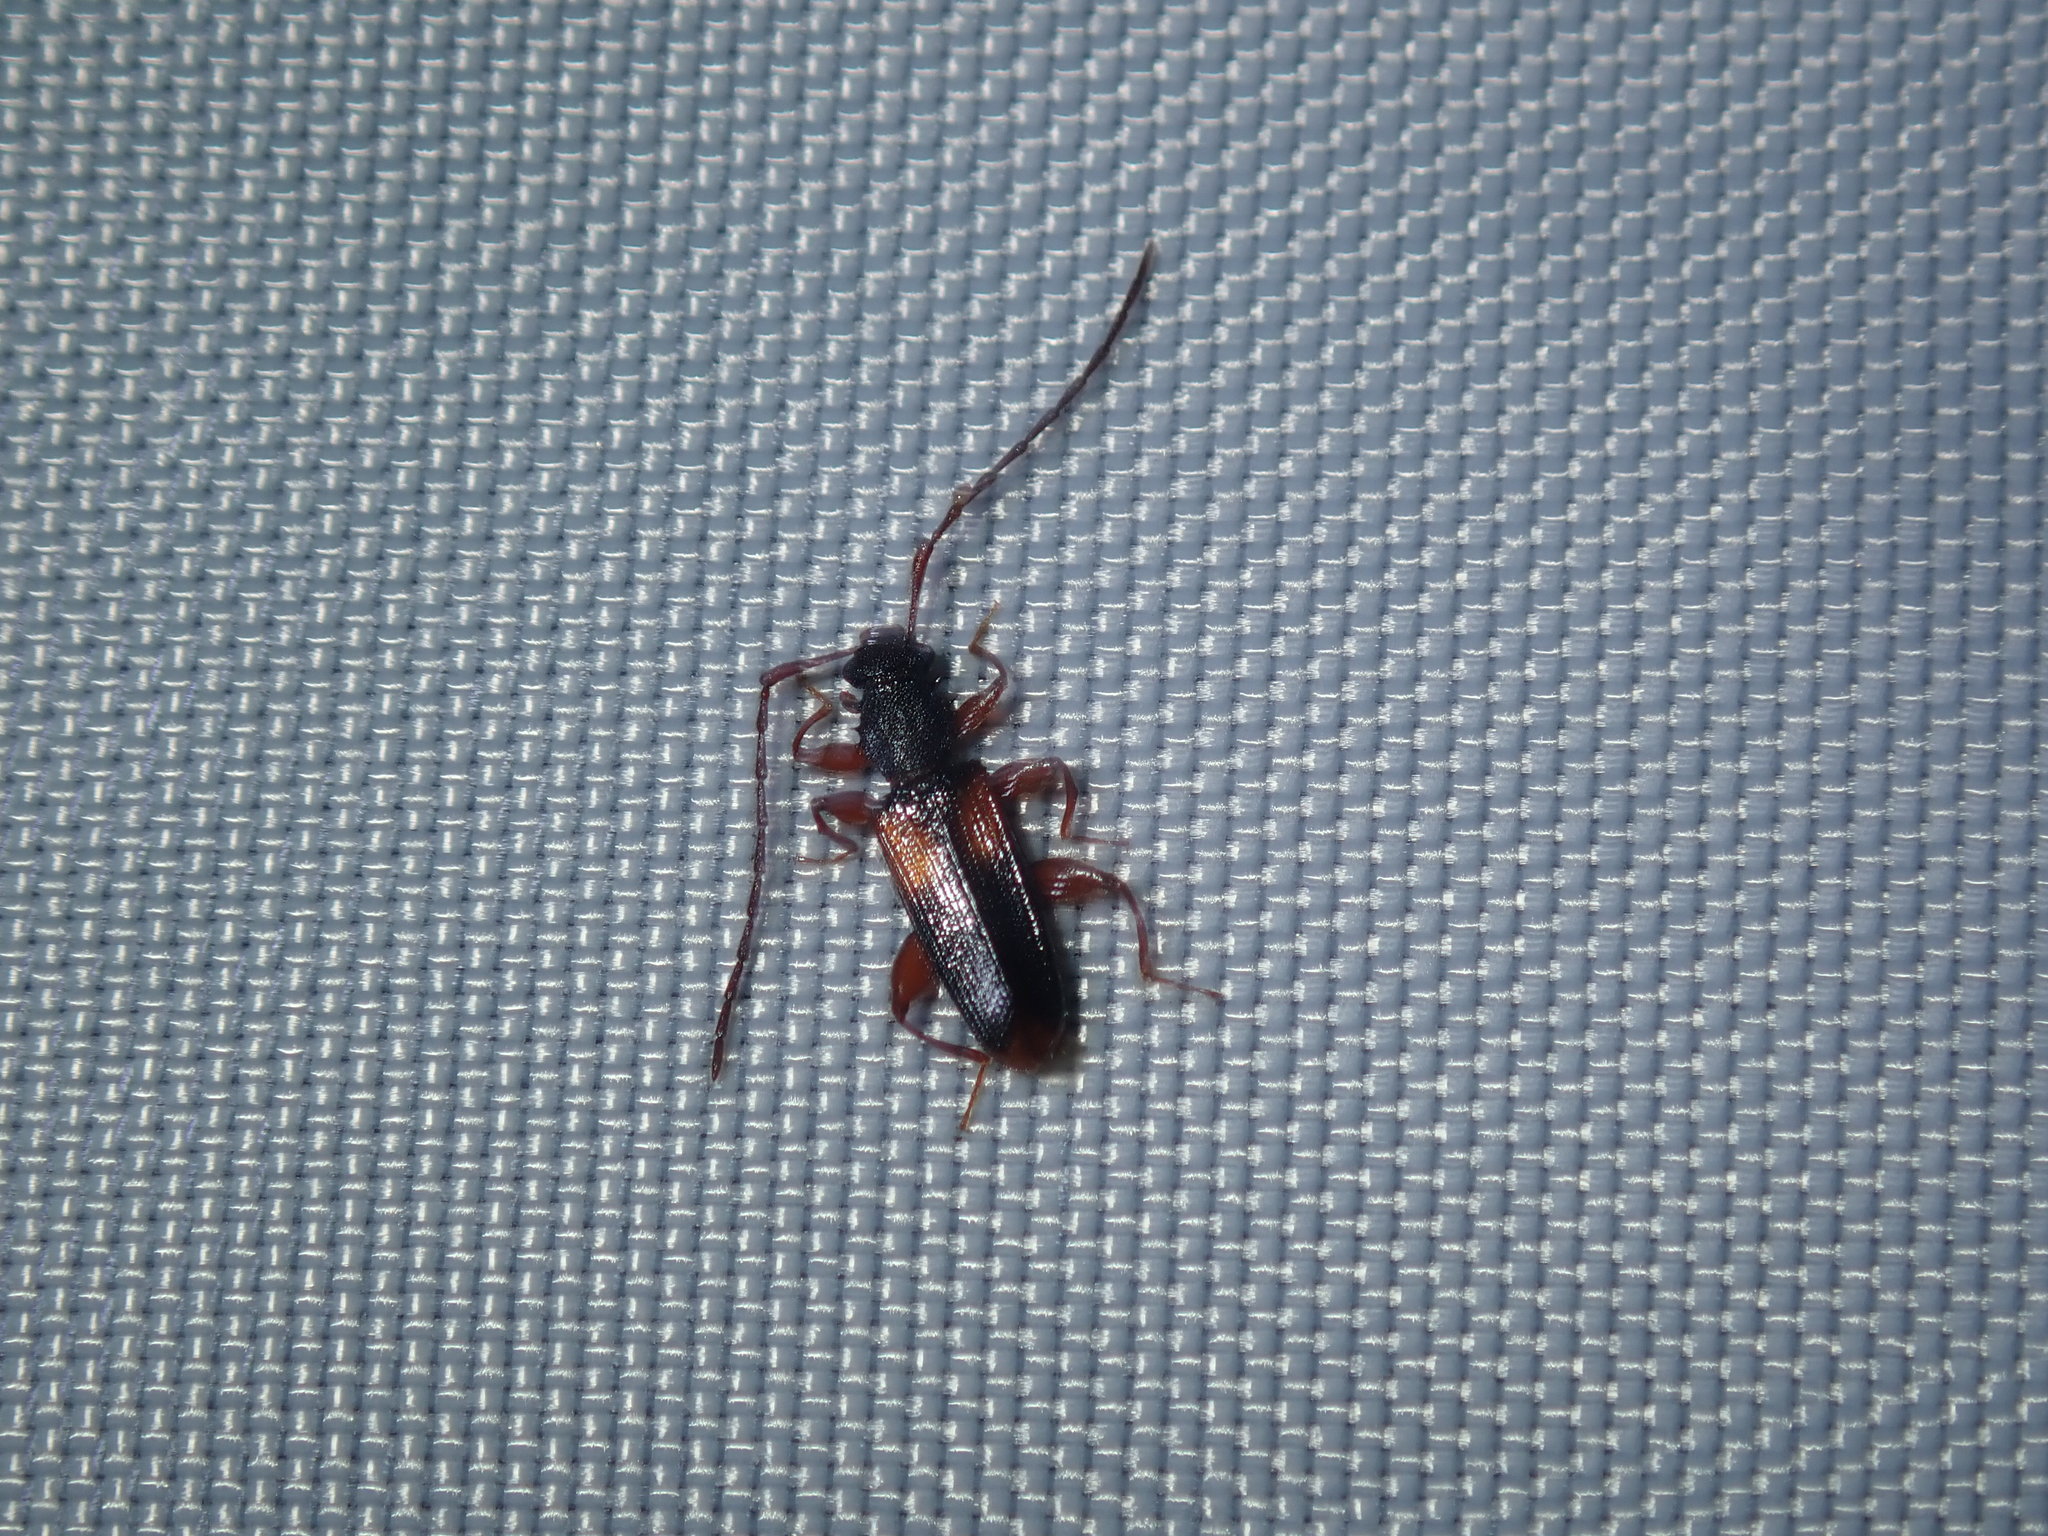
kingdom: Animalia
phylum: Arthropoda
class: Insecta
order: Coleoptera
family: Silvanidae
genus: Macrohyliota
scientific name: Macrohyliota militaris
